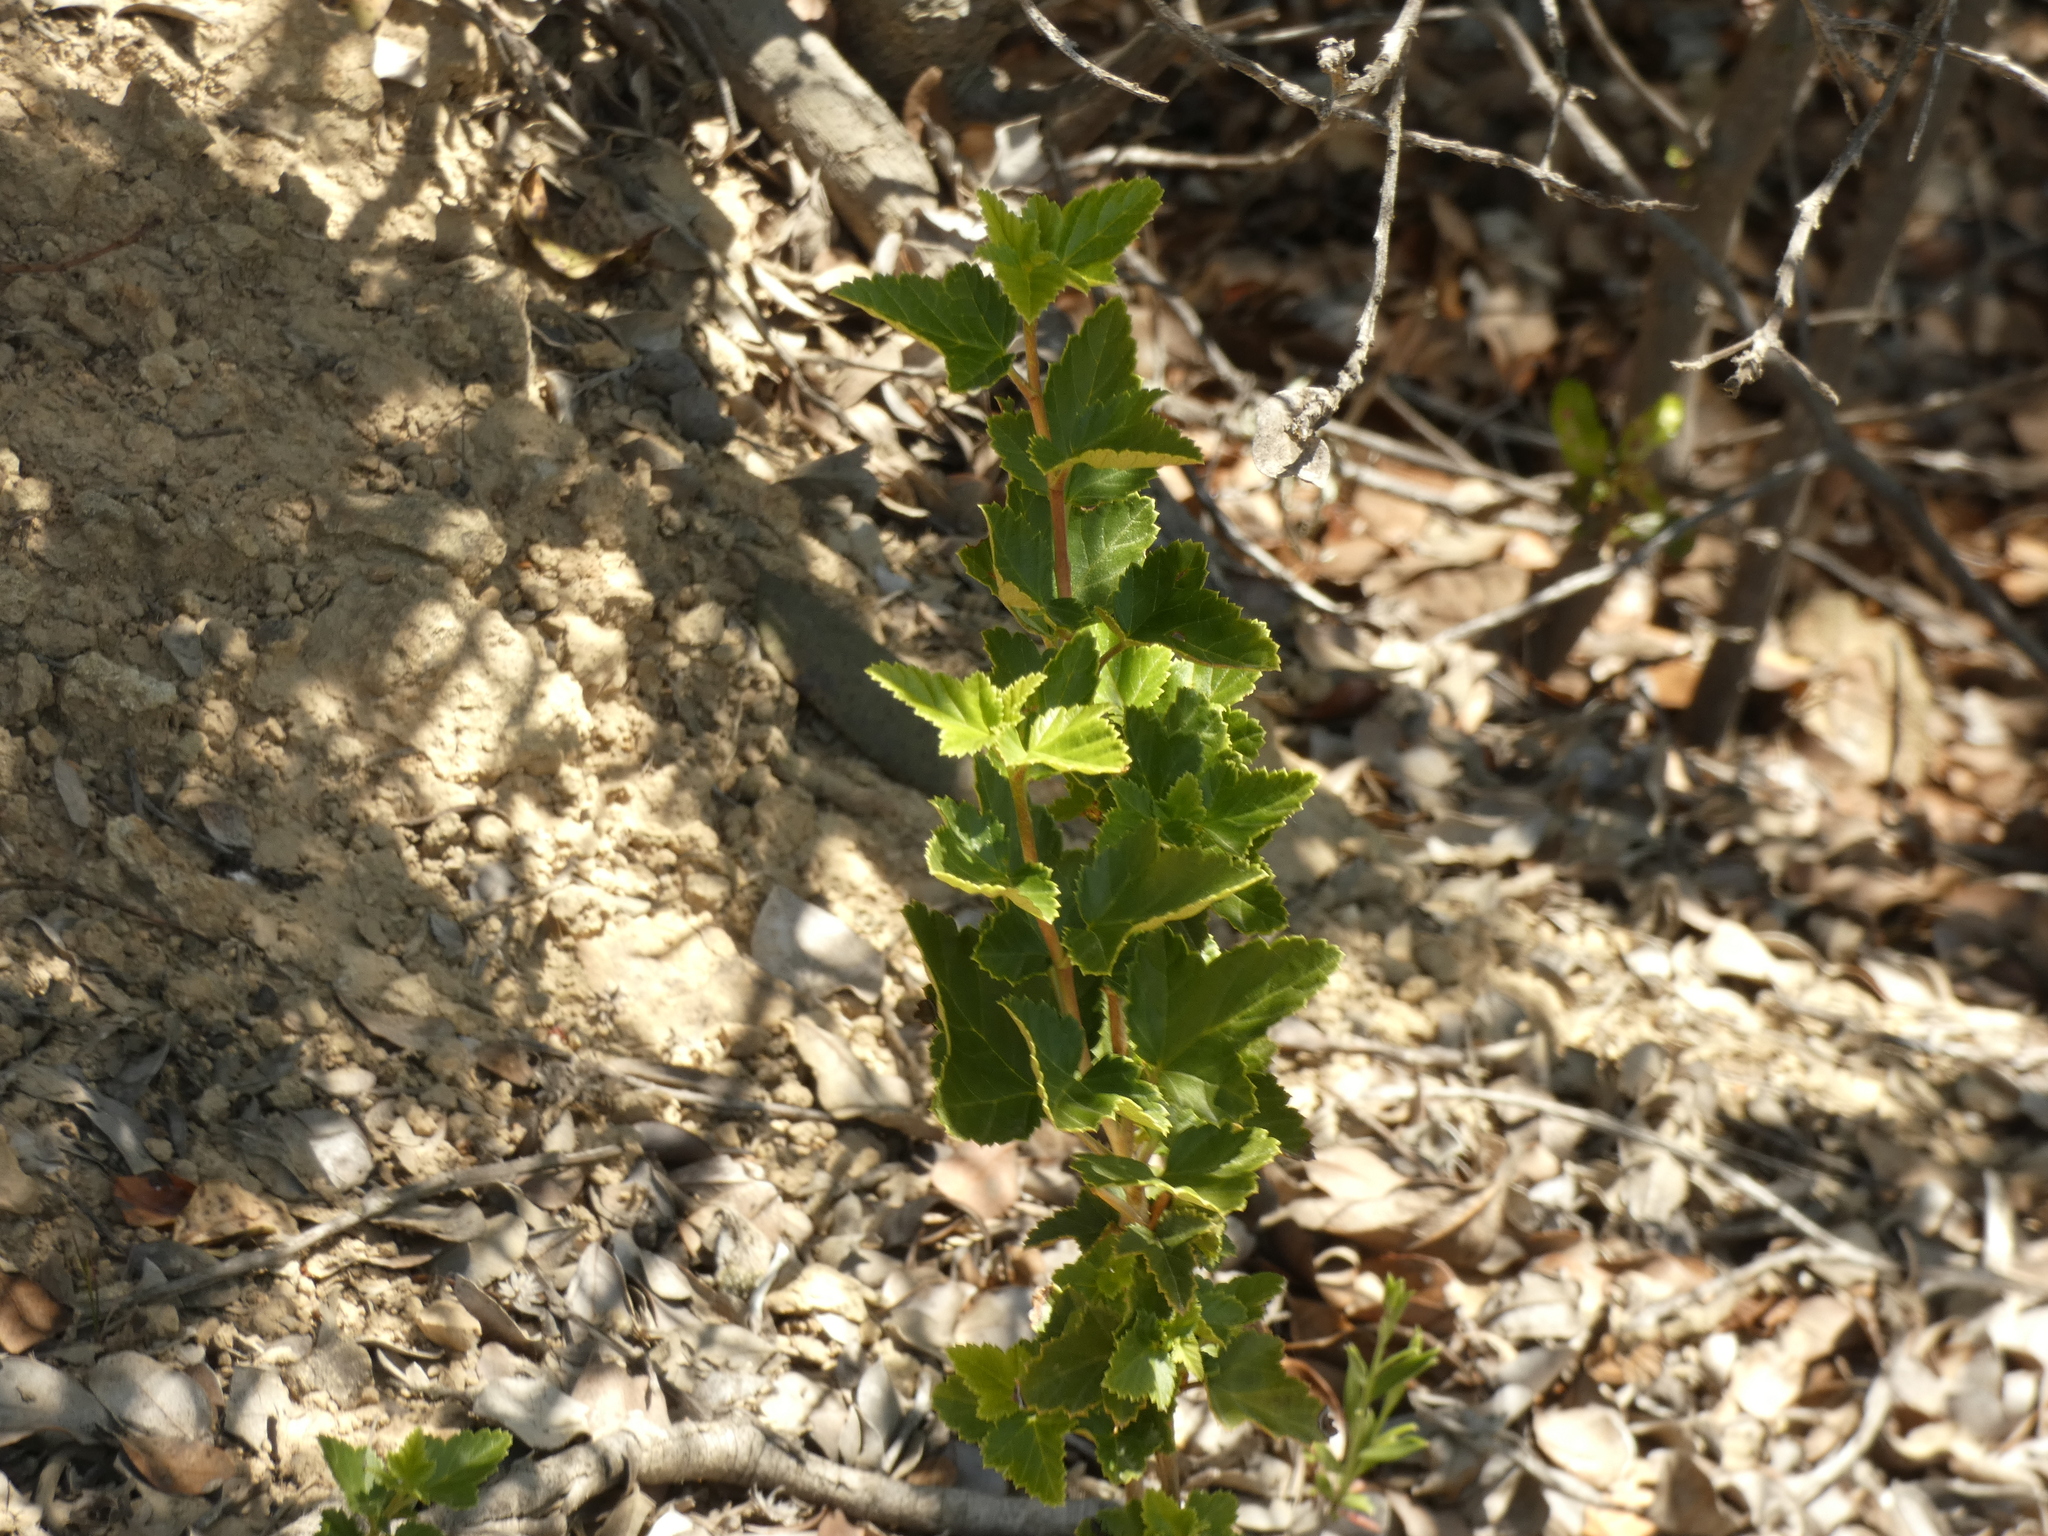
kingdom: Plantae
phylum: Tracheophyta
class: Magnoliopsida
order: Saxifragales
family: Grossulariaceae
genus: Ribes
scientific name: Ribes punctatum
